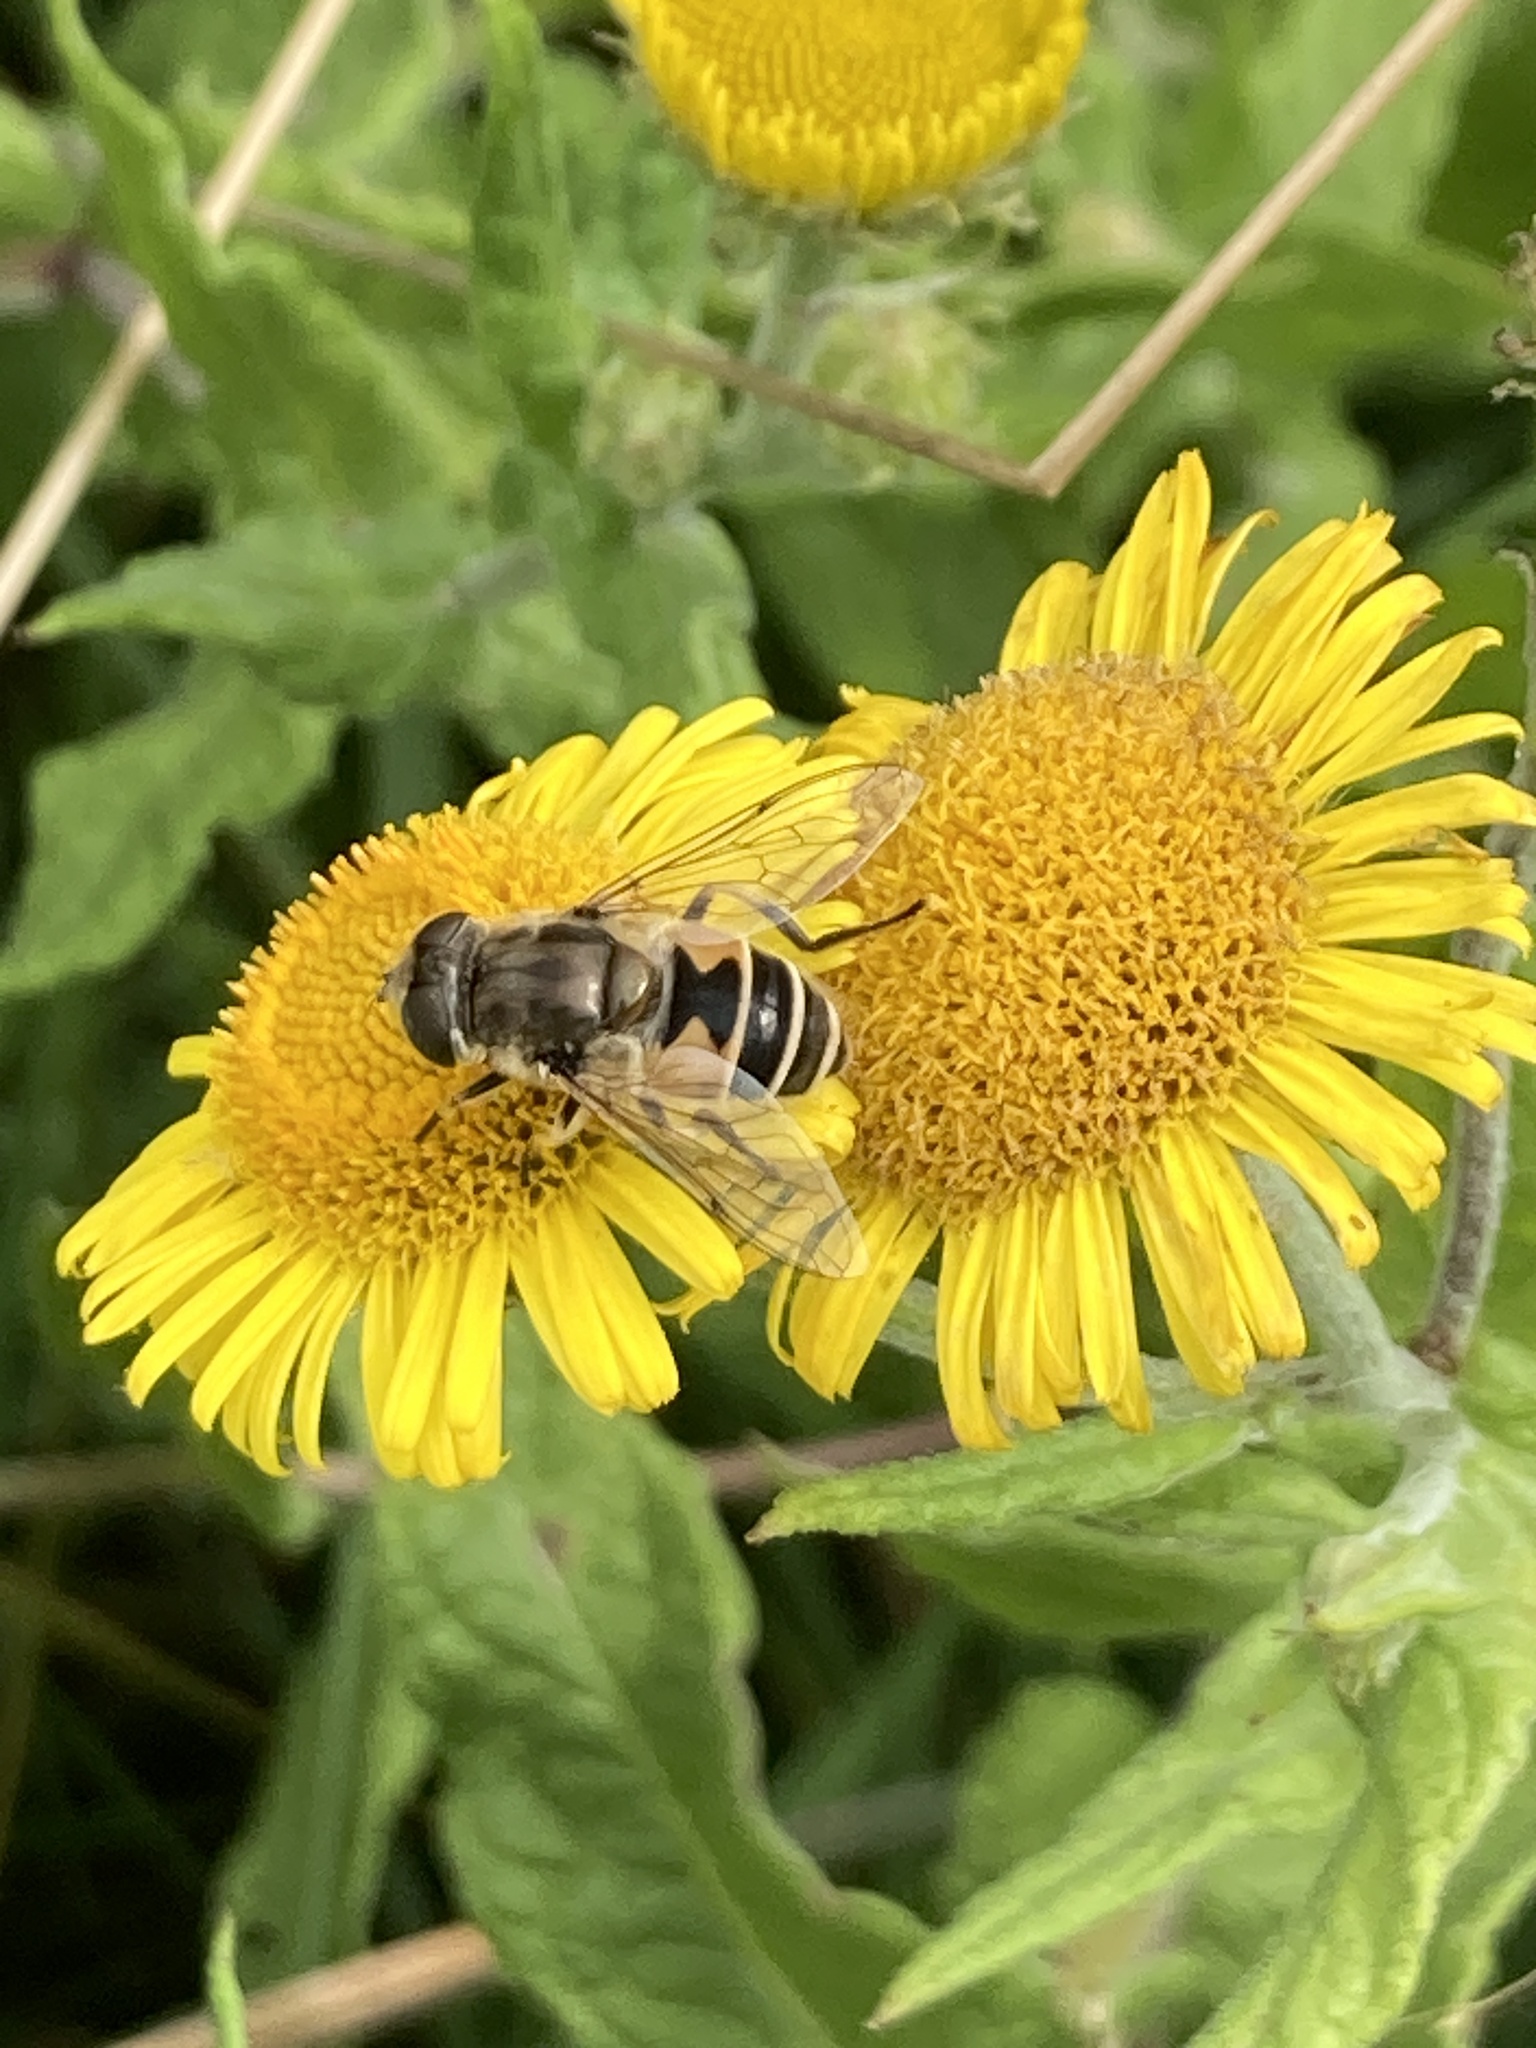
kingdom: Animalia
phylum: Arthropoda
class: Insecta
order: Diptera
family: Syrphidae
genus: Eristalis
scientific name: Eristalis arbustorum
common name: Hover fly
